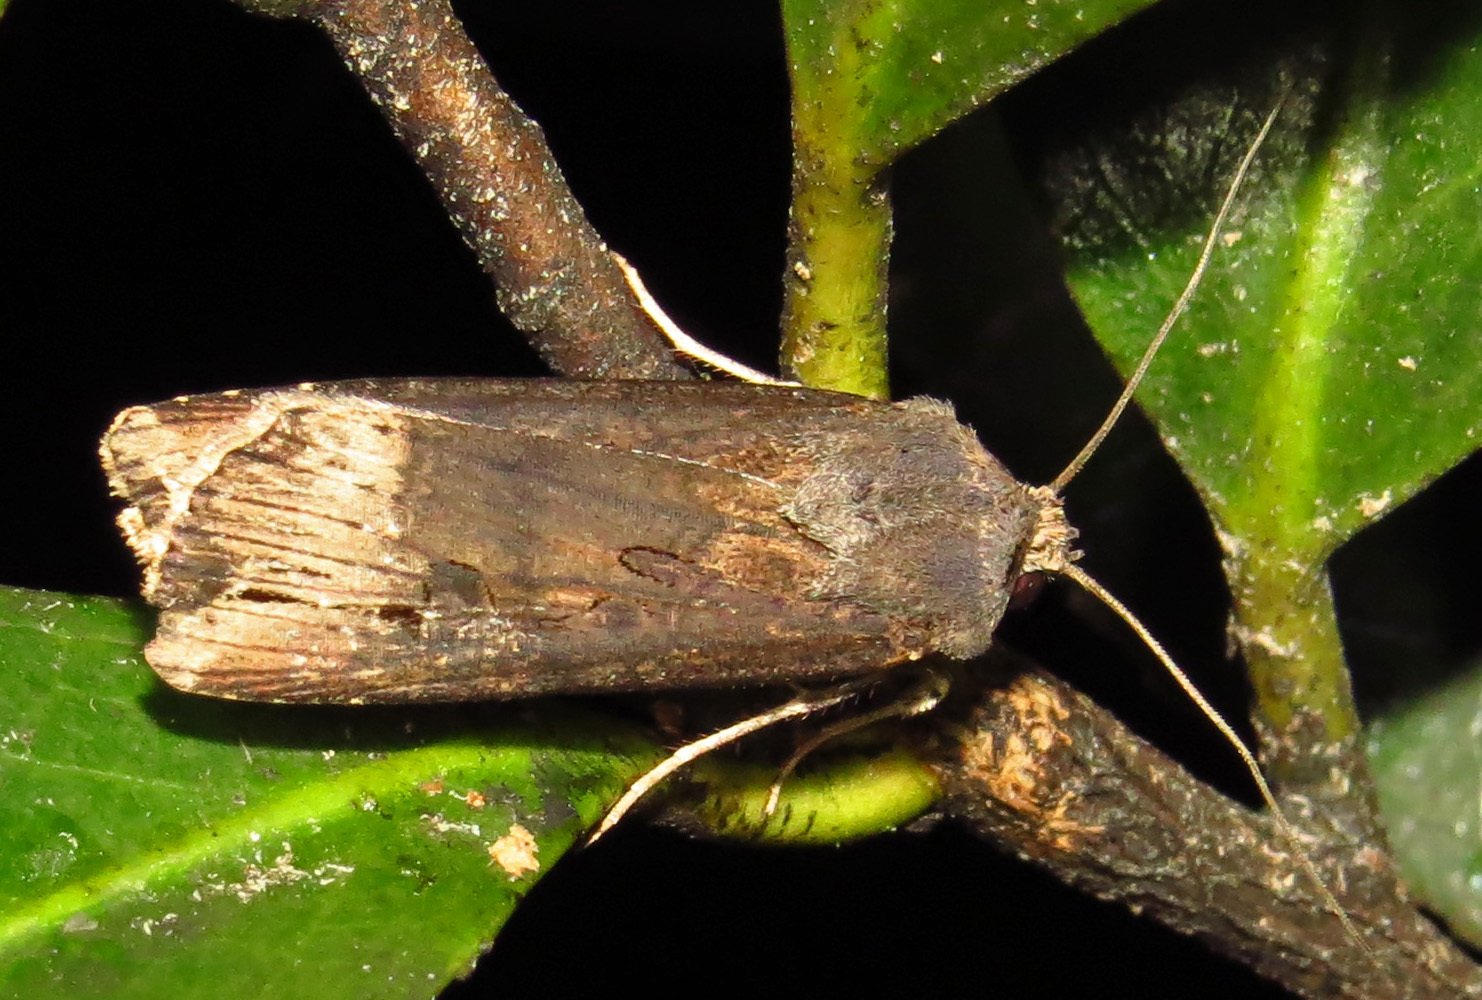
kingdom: Animalia
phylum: Arthropoda
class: Insecta
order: Lepidoptera
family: Noctuidae
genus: Agrotis
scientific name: Agrotis ipsilon
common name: Dark sword-grass
